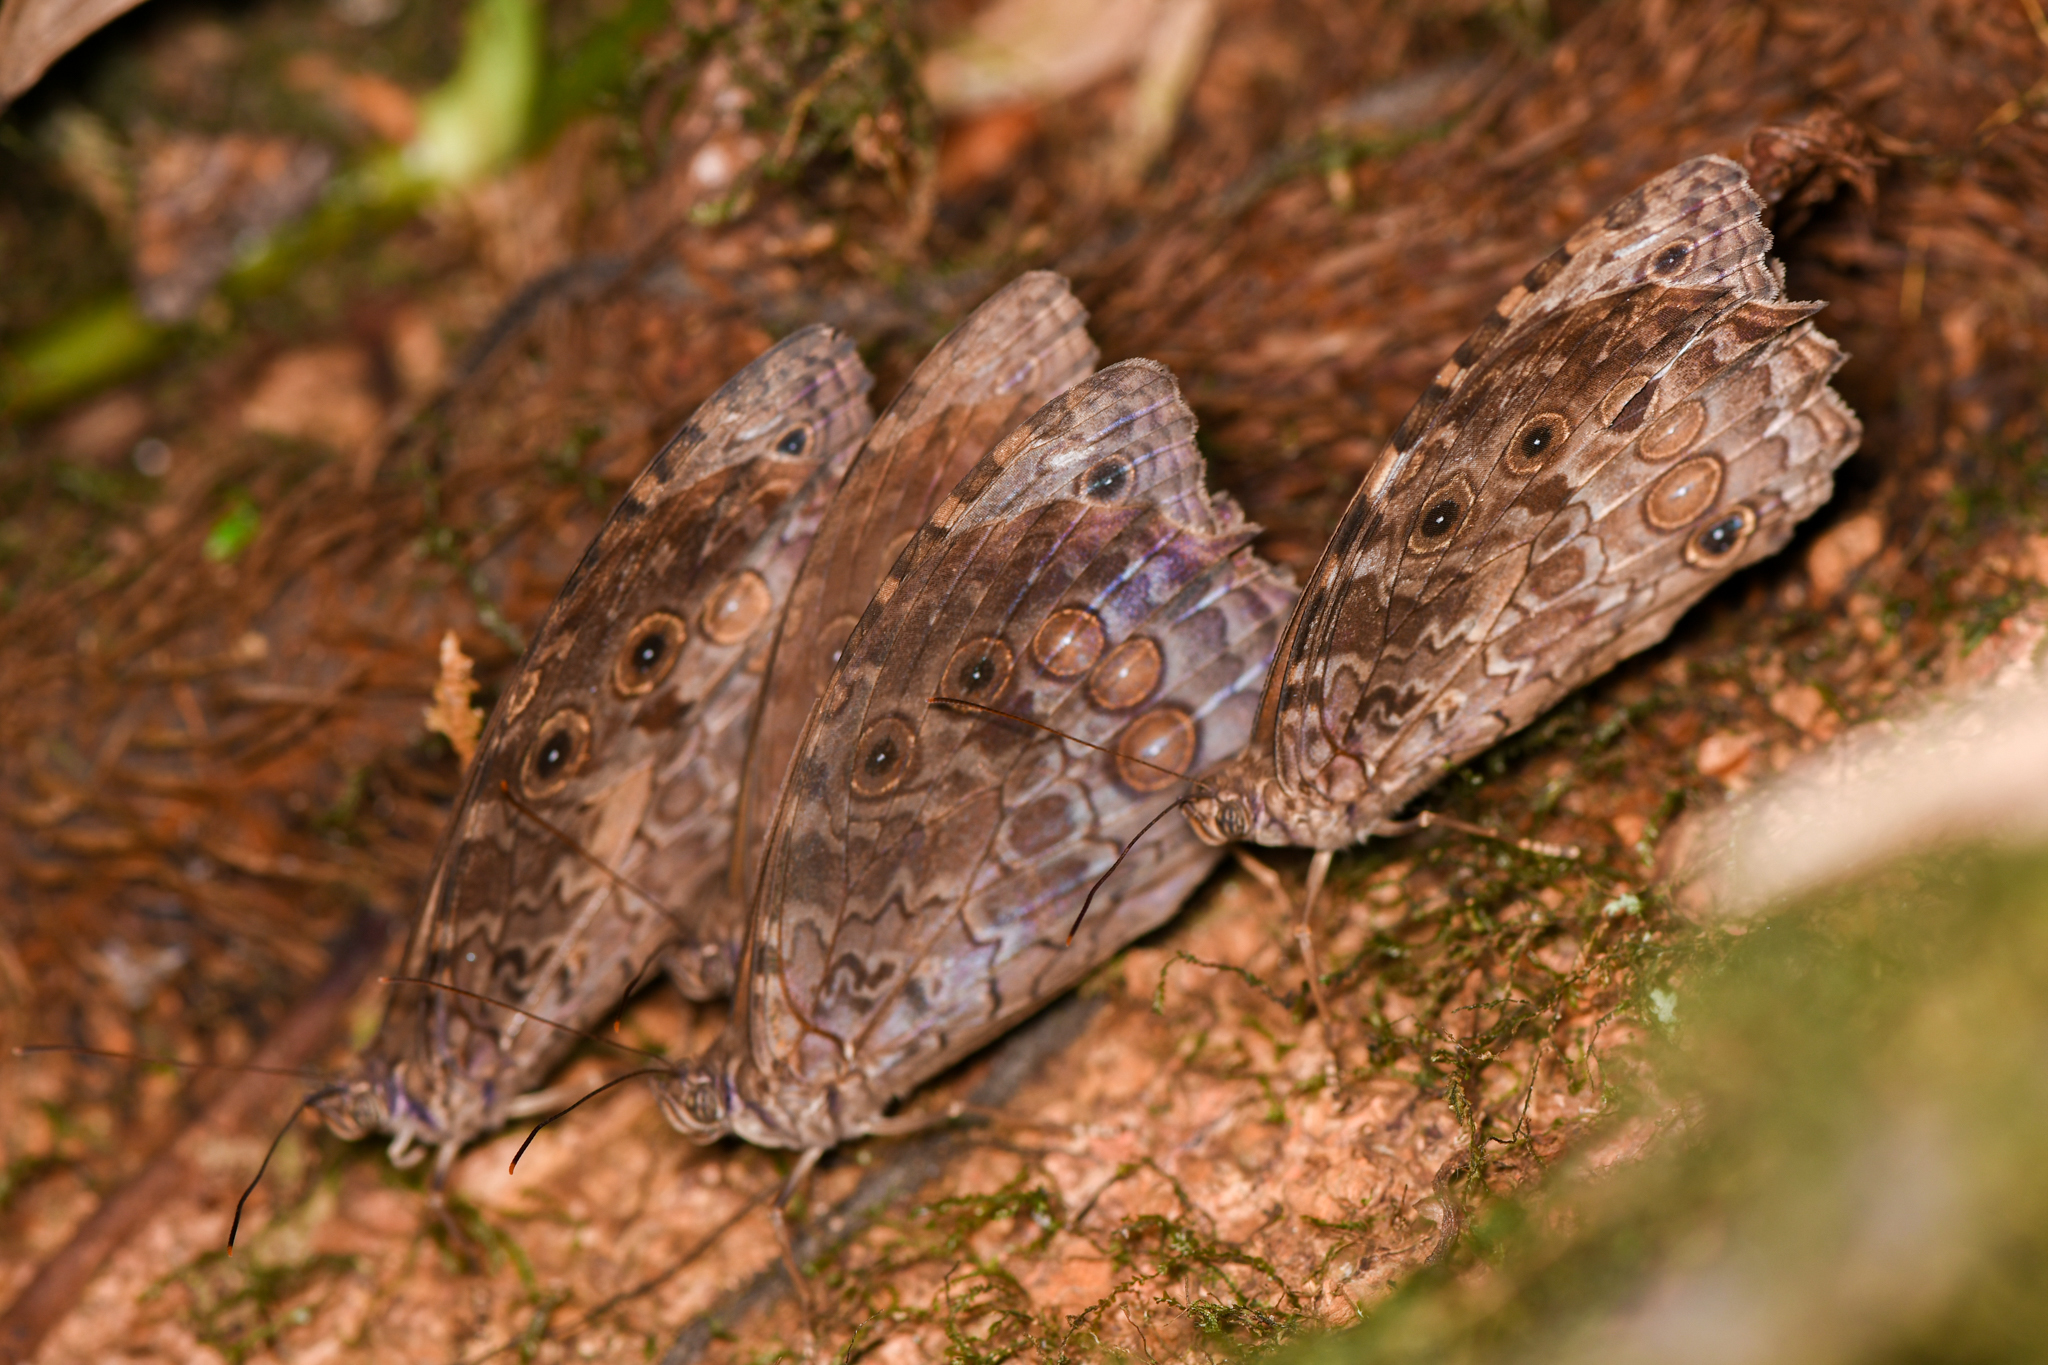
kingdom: Animalia
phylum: Arthropoda
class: Insecta
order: Lepidoptera
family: Nymphalidae
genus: Manataria
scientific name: Manataria maculata
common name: White-spotted satyr
